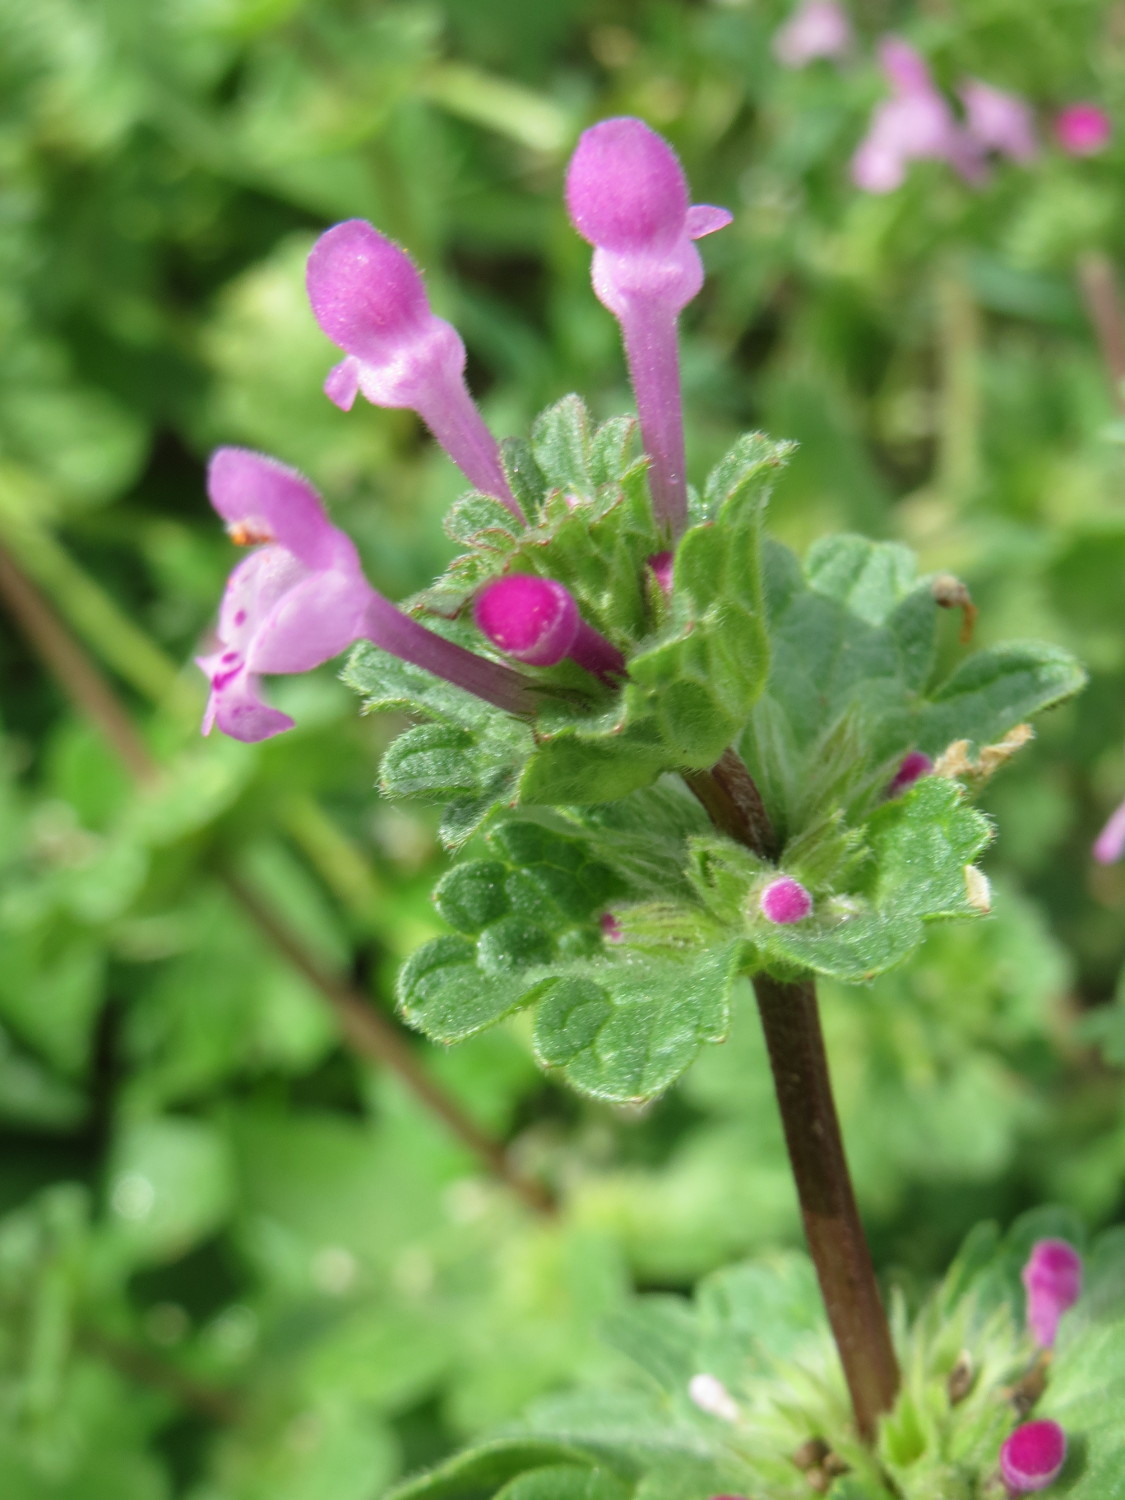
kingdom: Plantae
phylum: Tracheophyta
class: Magnoliopsida
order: Lamiales
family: Lamiaceae
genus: Lamium
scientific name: Lamium amplexicaule
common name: Henbit dead-nettle
